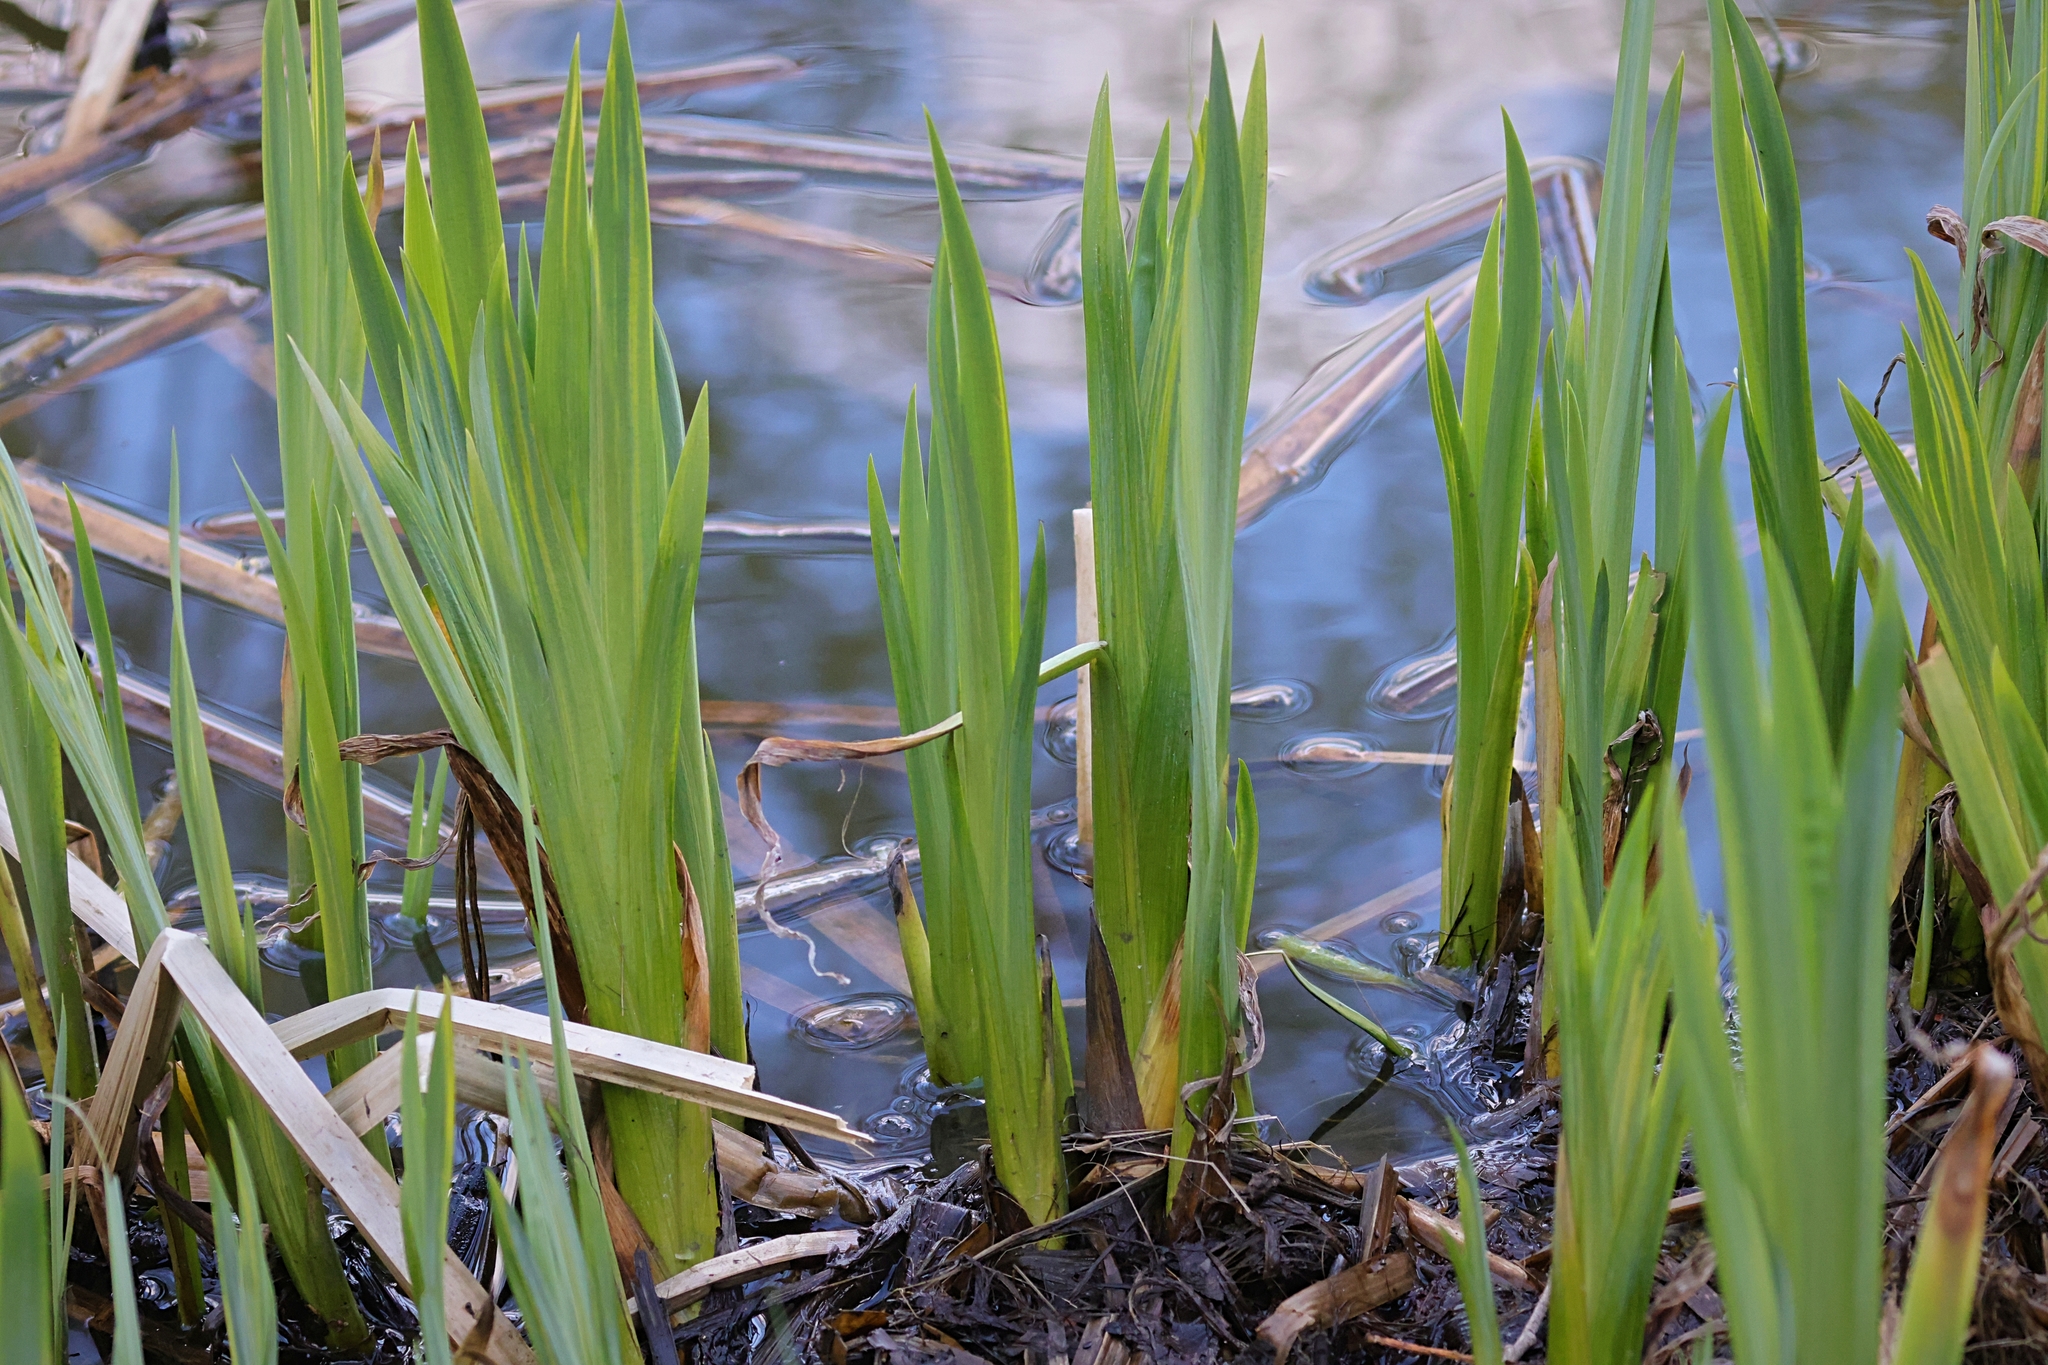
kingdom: Plantae
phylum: Tracheophyta
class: Liliopsida
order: Asparagales
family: Iridaceae
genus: Iris
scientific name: Iris pseudacorus
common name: Yellow flag
